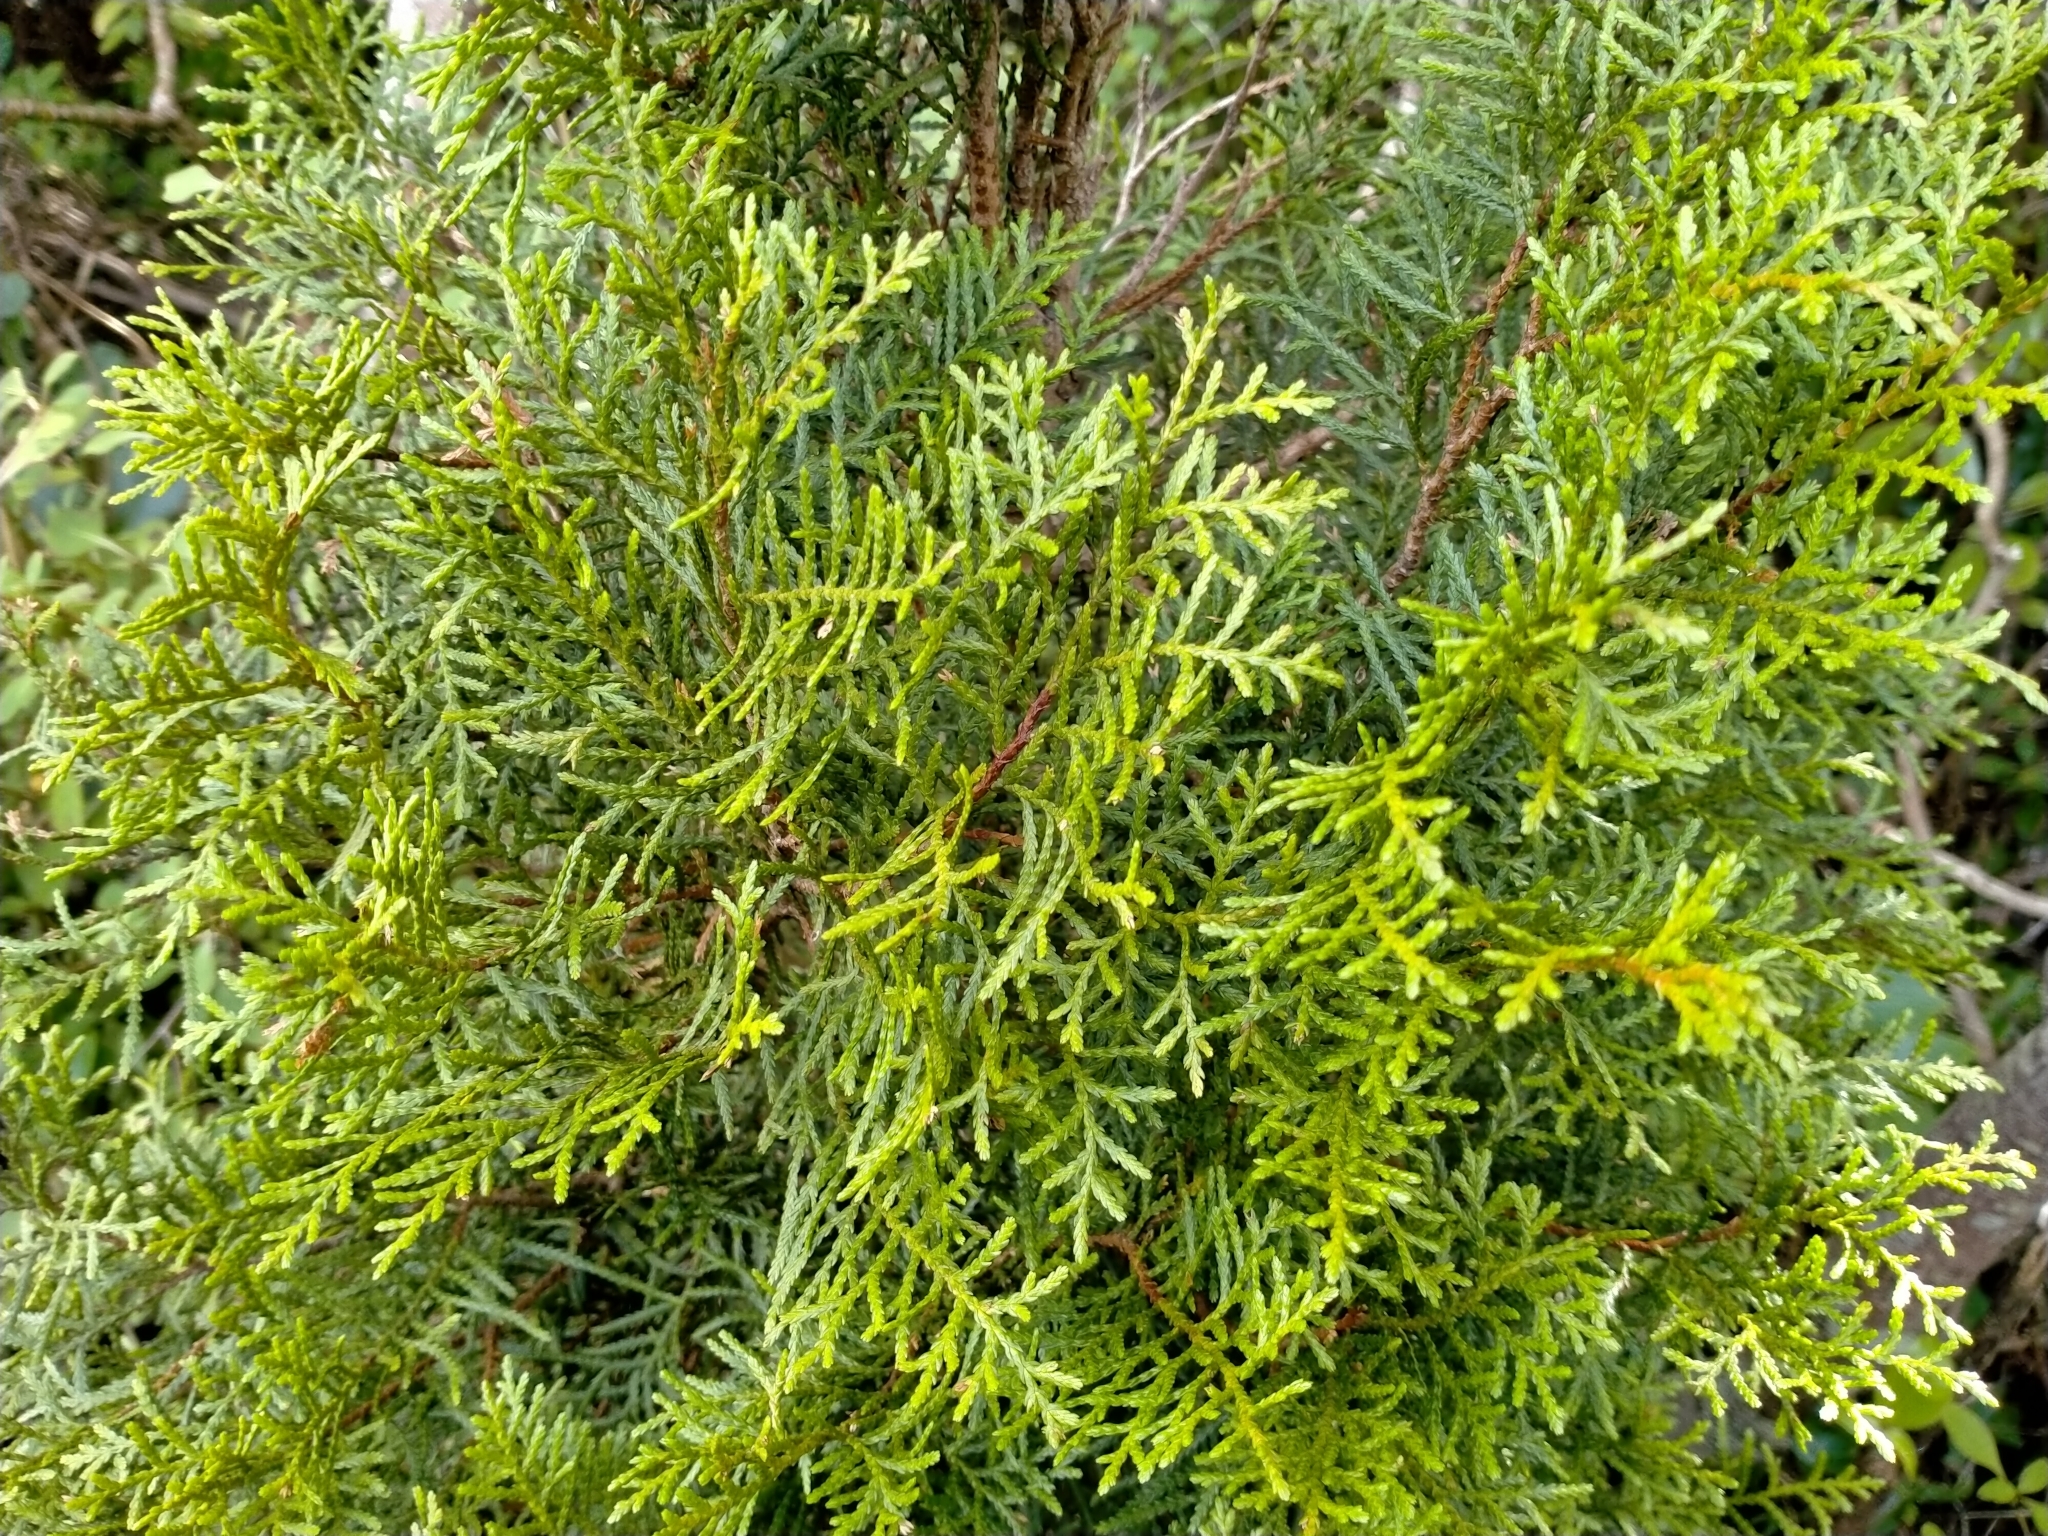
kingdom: Plantae
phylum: Tracheophyta
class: Pinopsida
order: Pinales
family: Cupressaceae
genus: Libocedrus
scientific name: Libocedrus bidwillii
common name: Cedar
